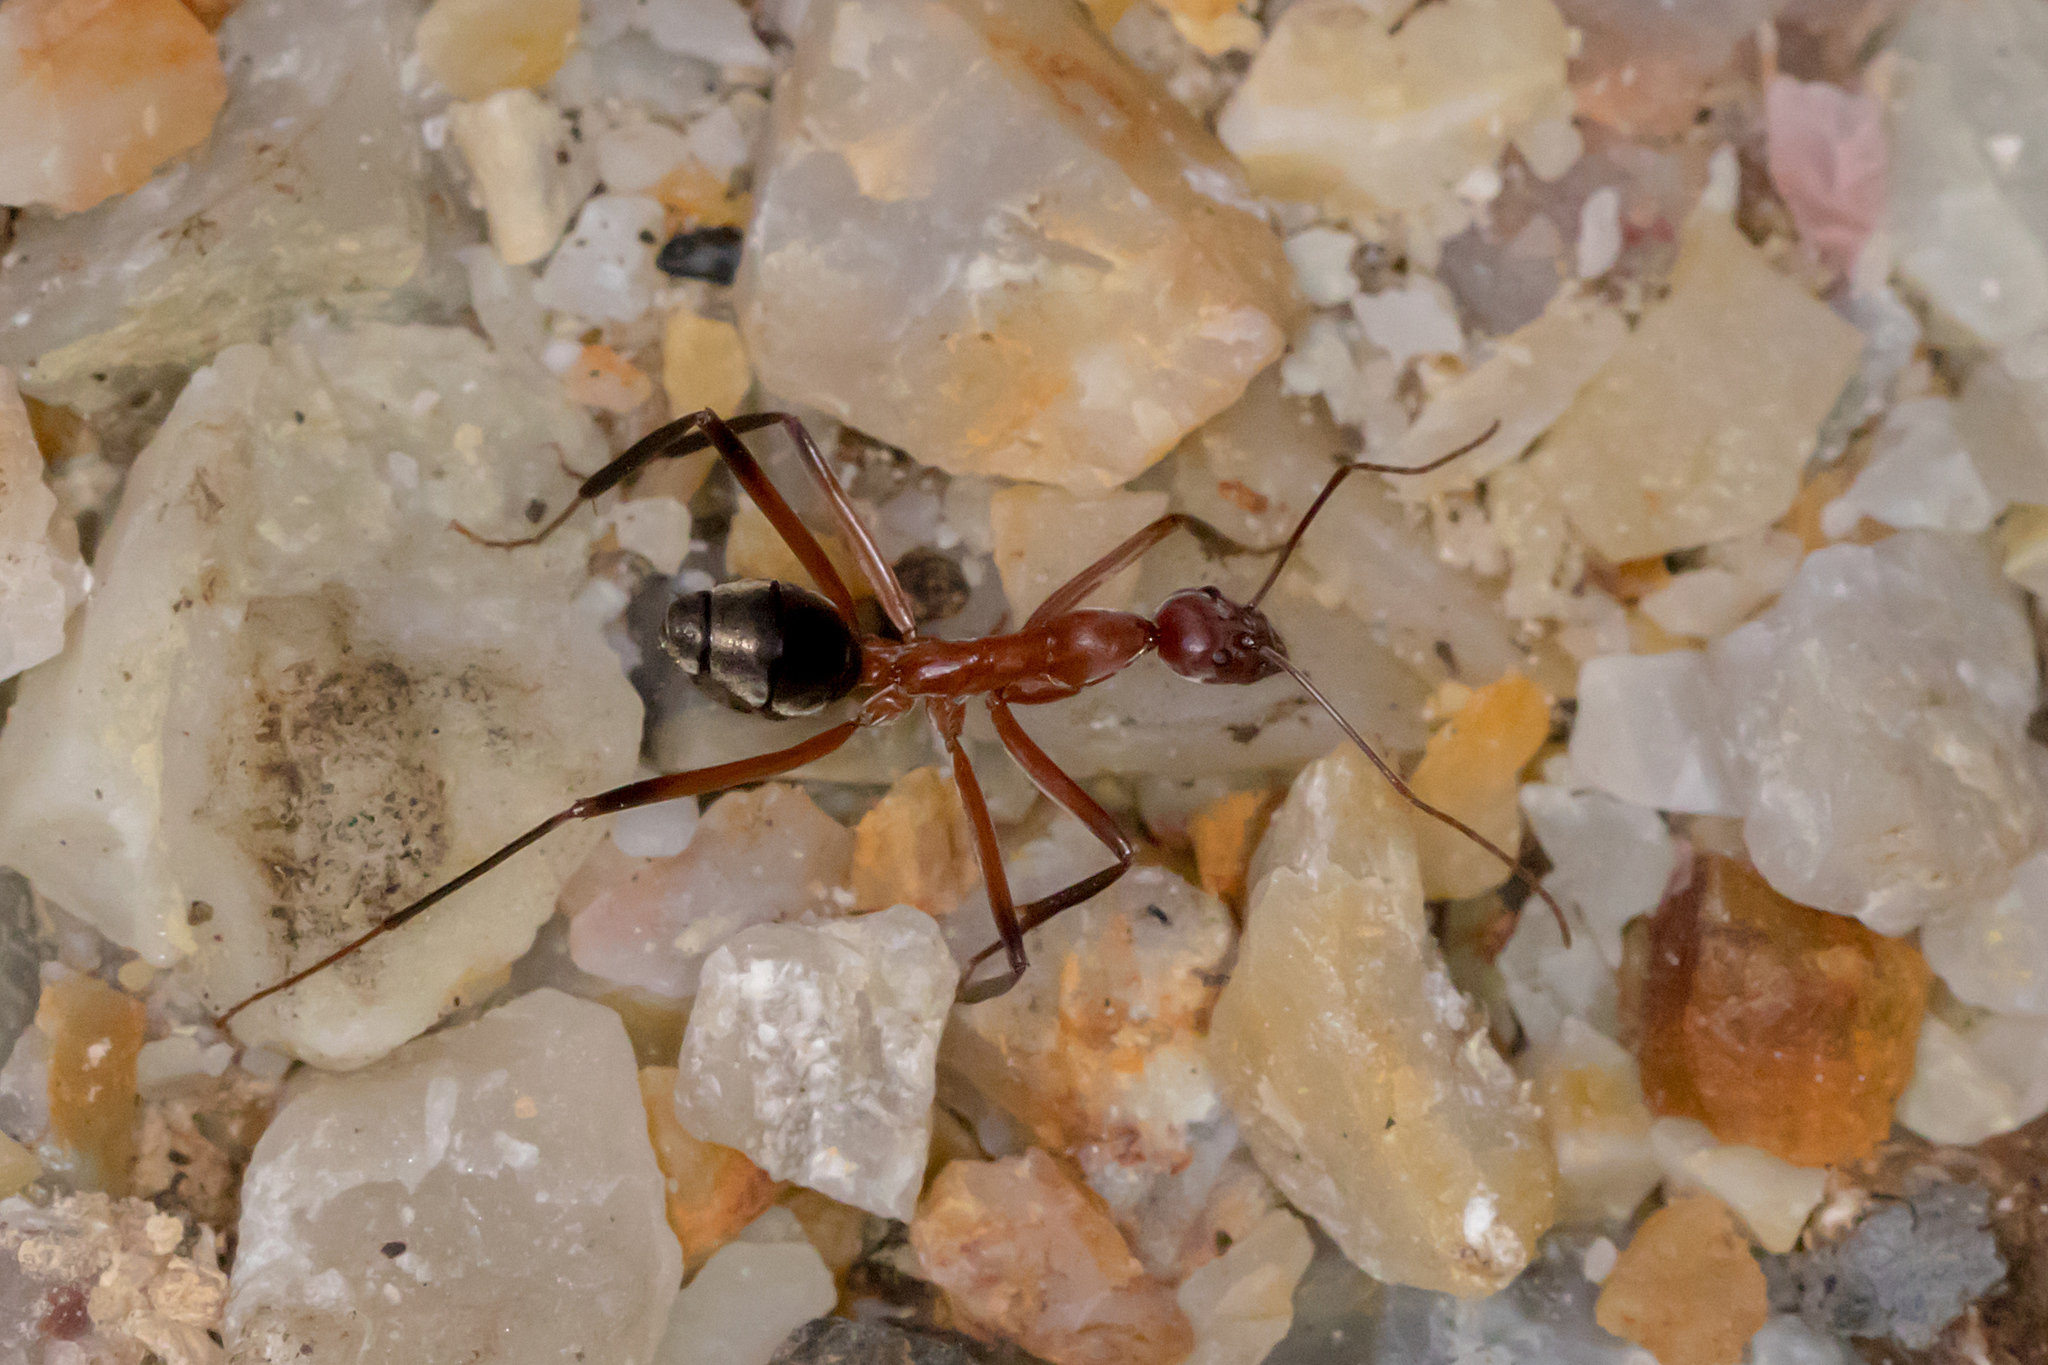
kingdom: Animalia
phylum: Arthropoda
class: Insecta
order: Hymenoptera
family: Formicidae
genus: Leptomyrmex
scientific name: Leptomyrmex tibialis
